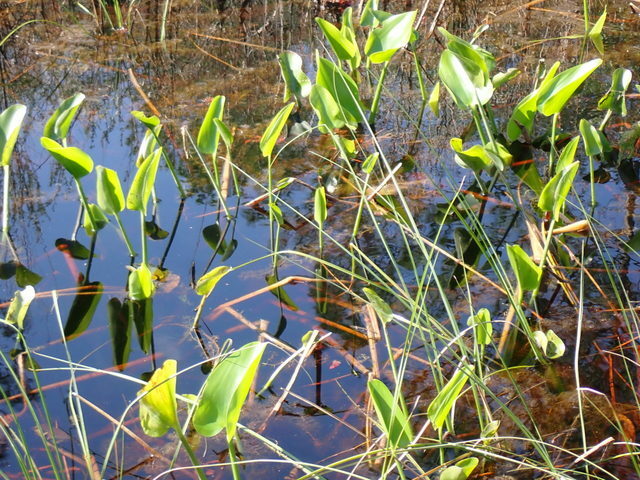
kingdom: Plantae
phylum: Tracheophyta
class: Liliopsida
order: Commelinales
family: Pontederiaceae
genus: Pontederia
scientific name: Pontederia cordata
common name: Pickerelweed
